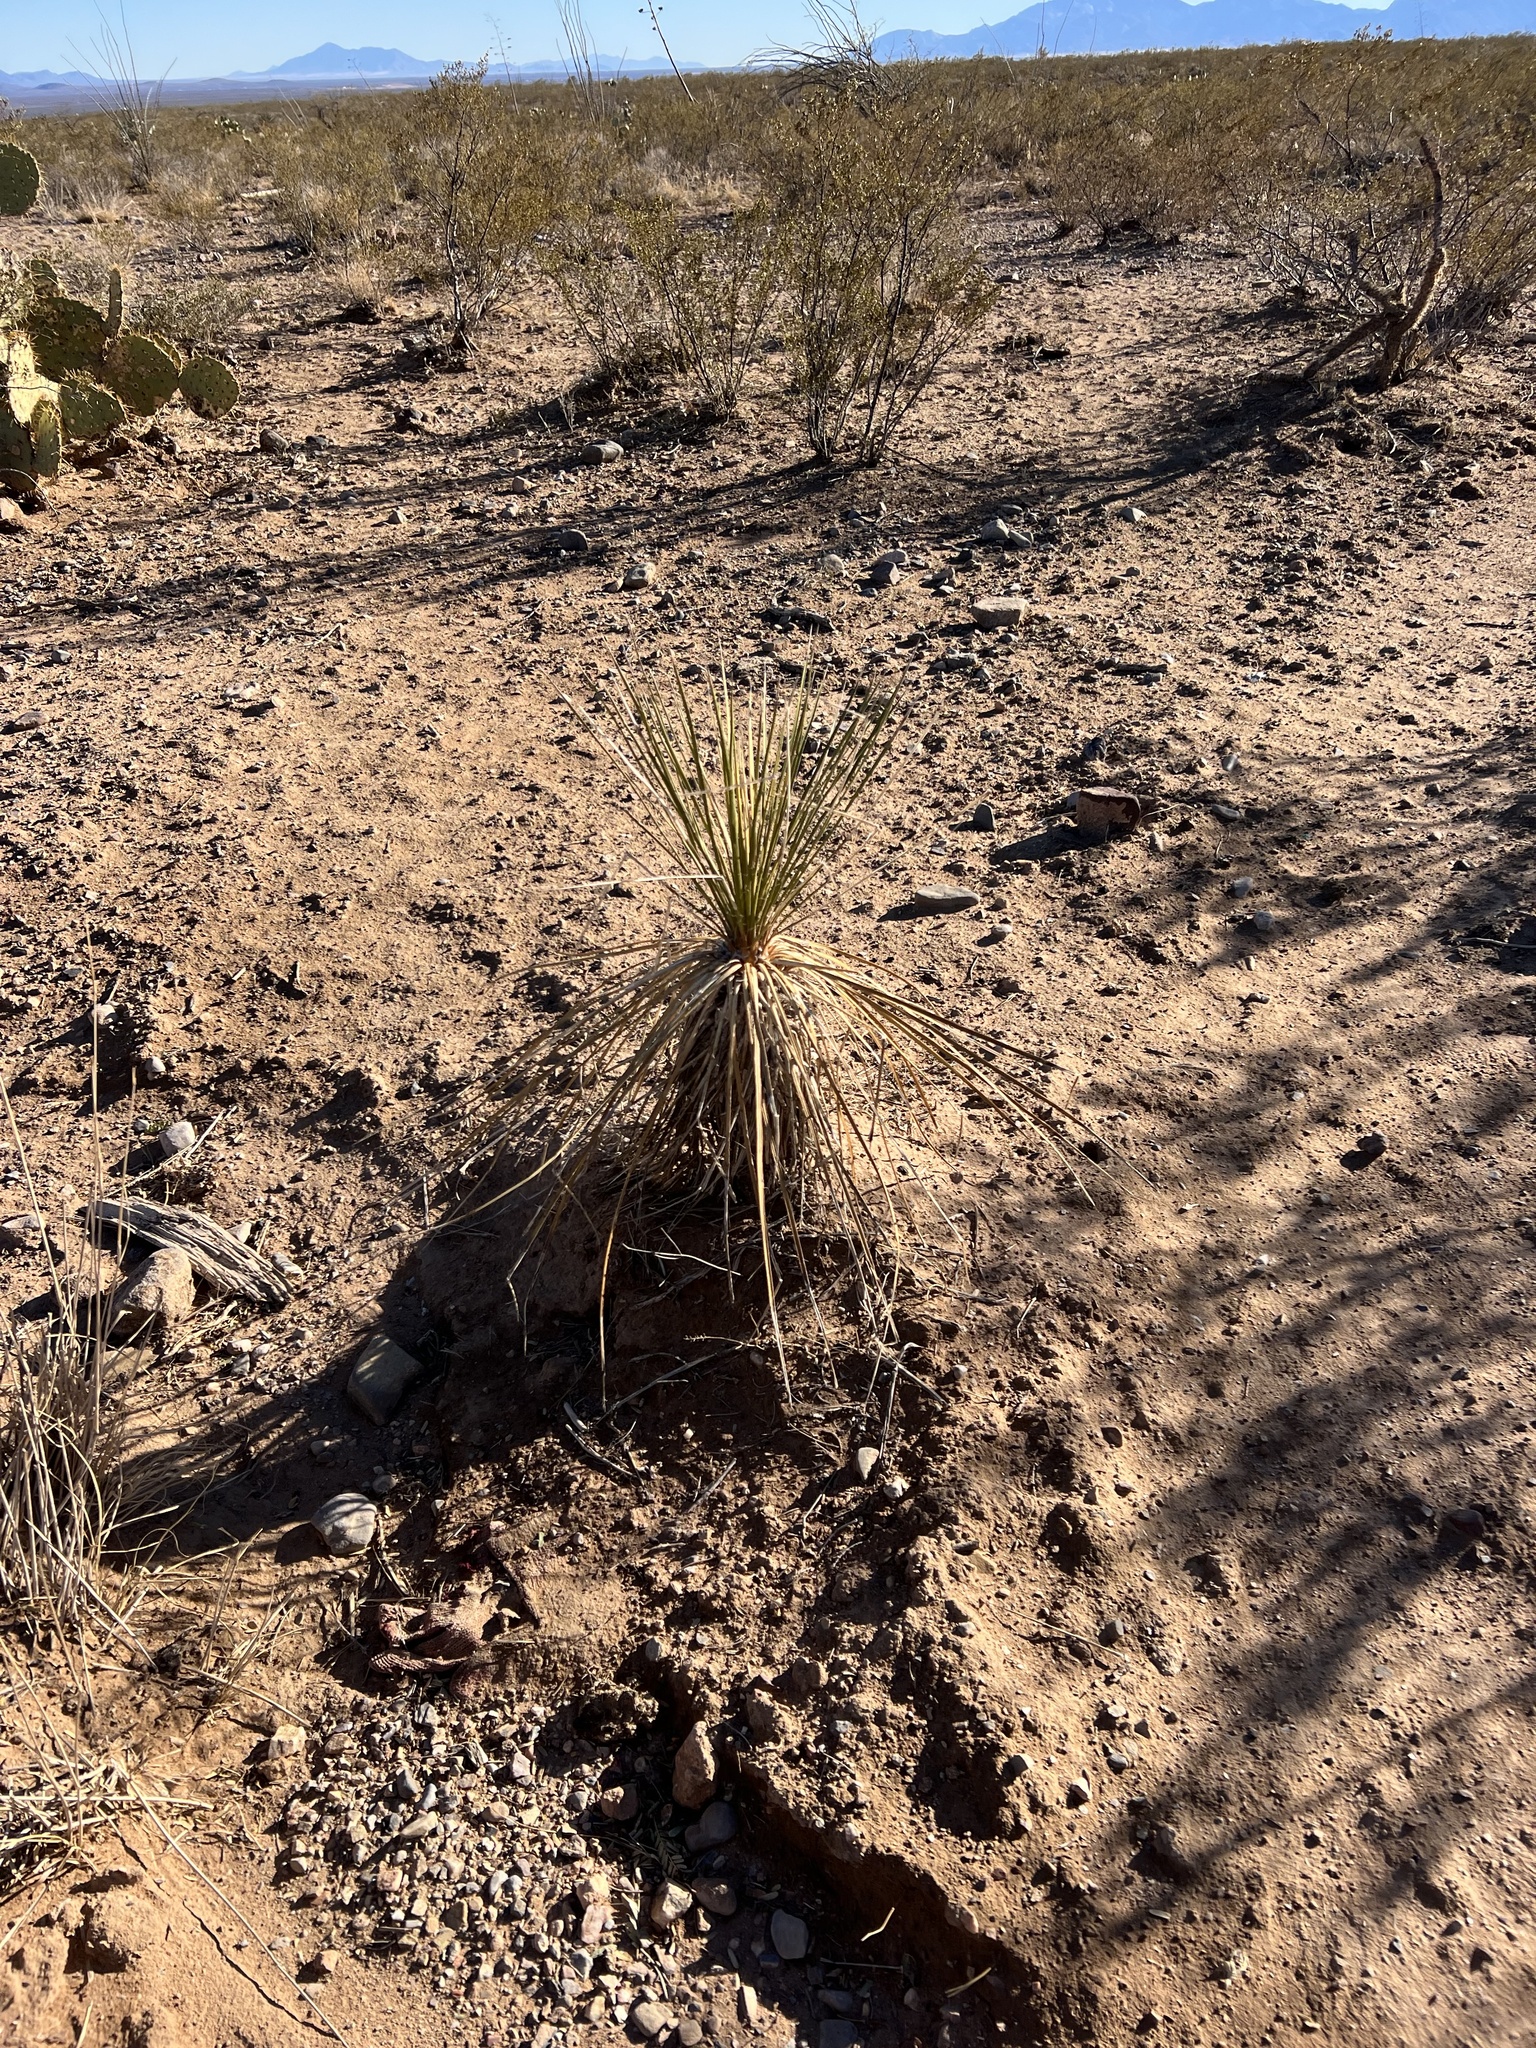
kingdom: Plantae
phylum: Tracheophyta
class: Liliopsida
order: Asparagales
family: Asparagaceae
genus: Yucca
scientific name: Yucca elata
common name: Palmella
